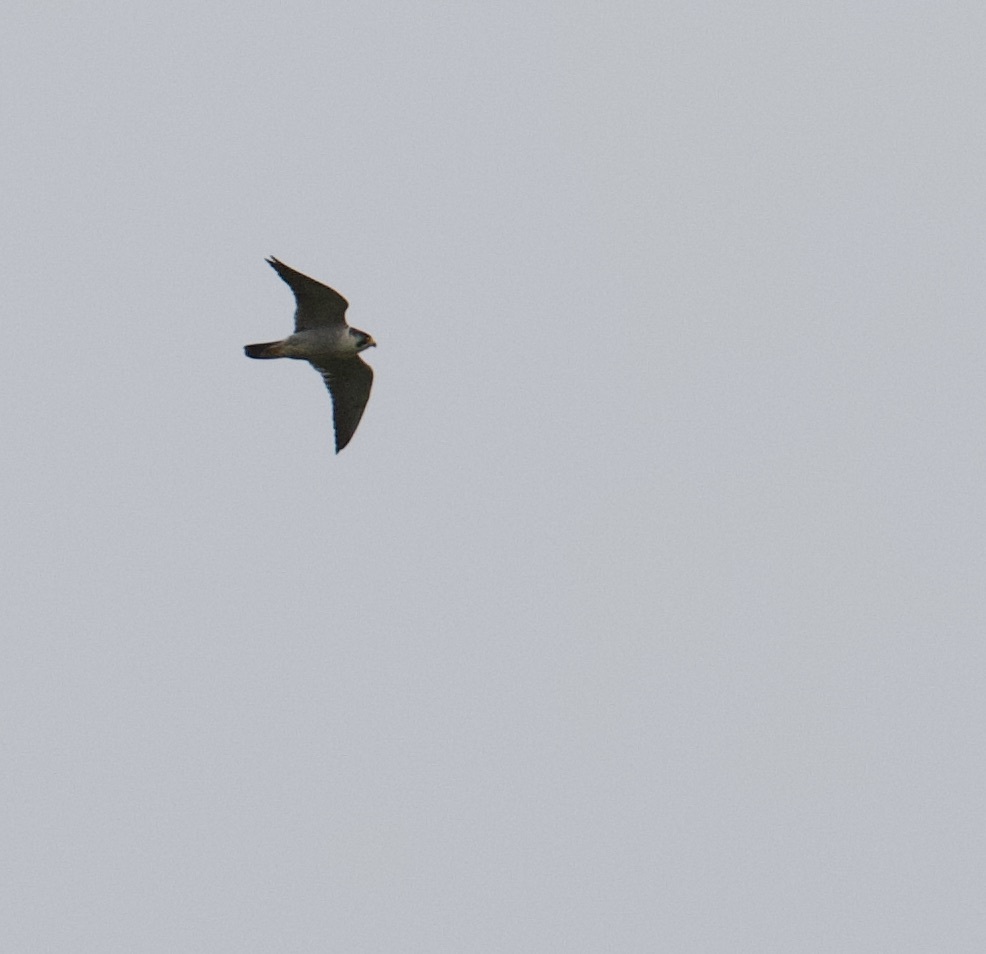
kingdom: Animalia
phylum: Chordata
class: Aves
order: Falconiformes
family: Falconidae
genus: Falco
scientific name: Falco peregrinus
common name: Peregrine falcon
